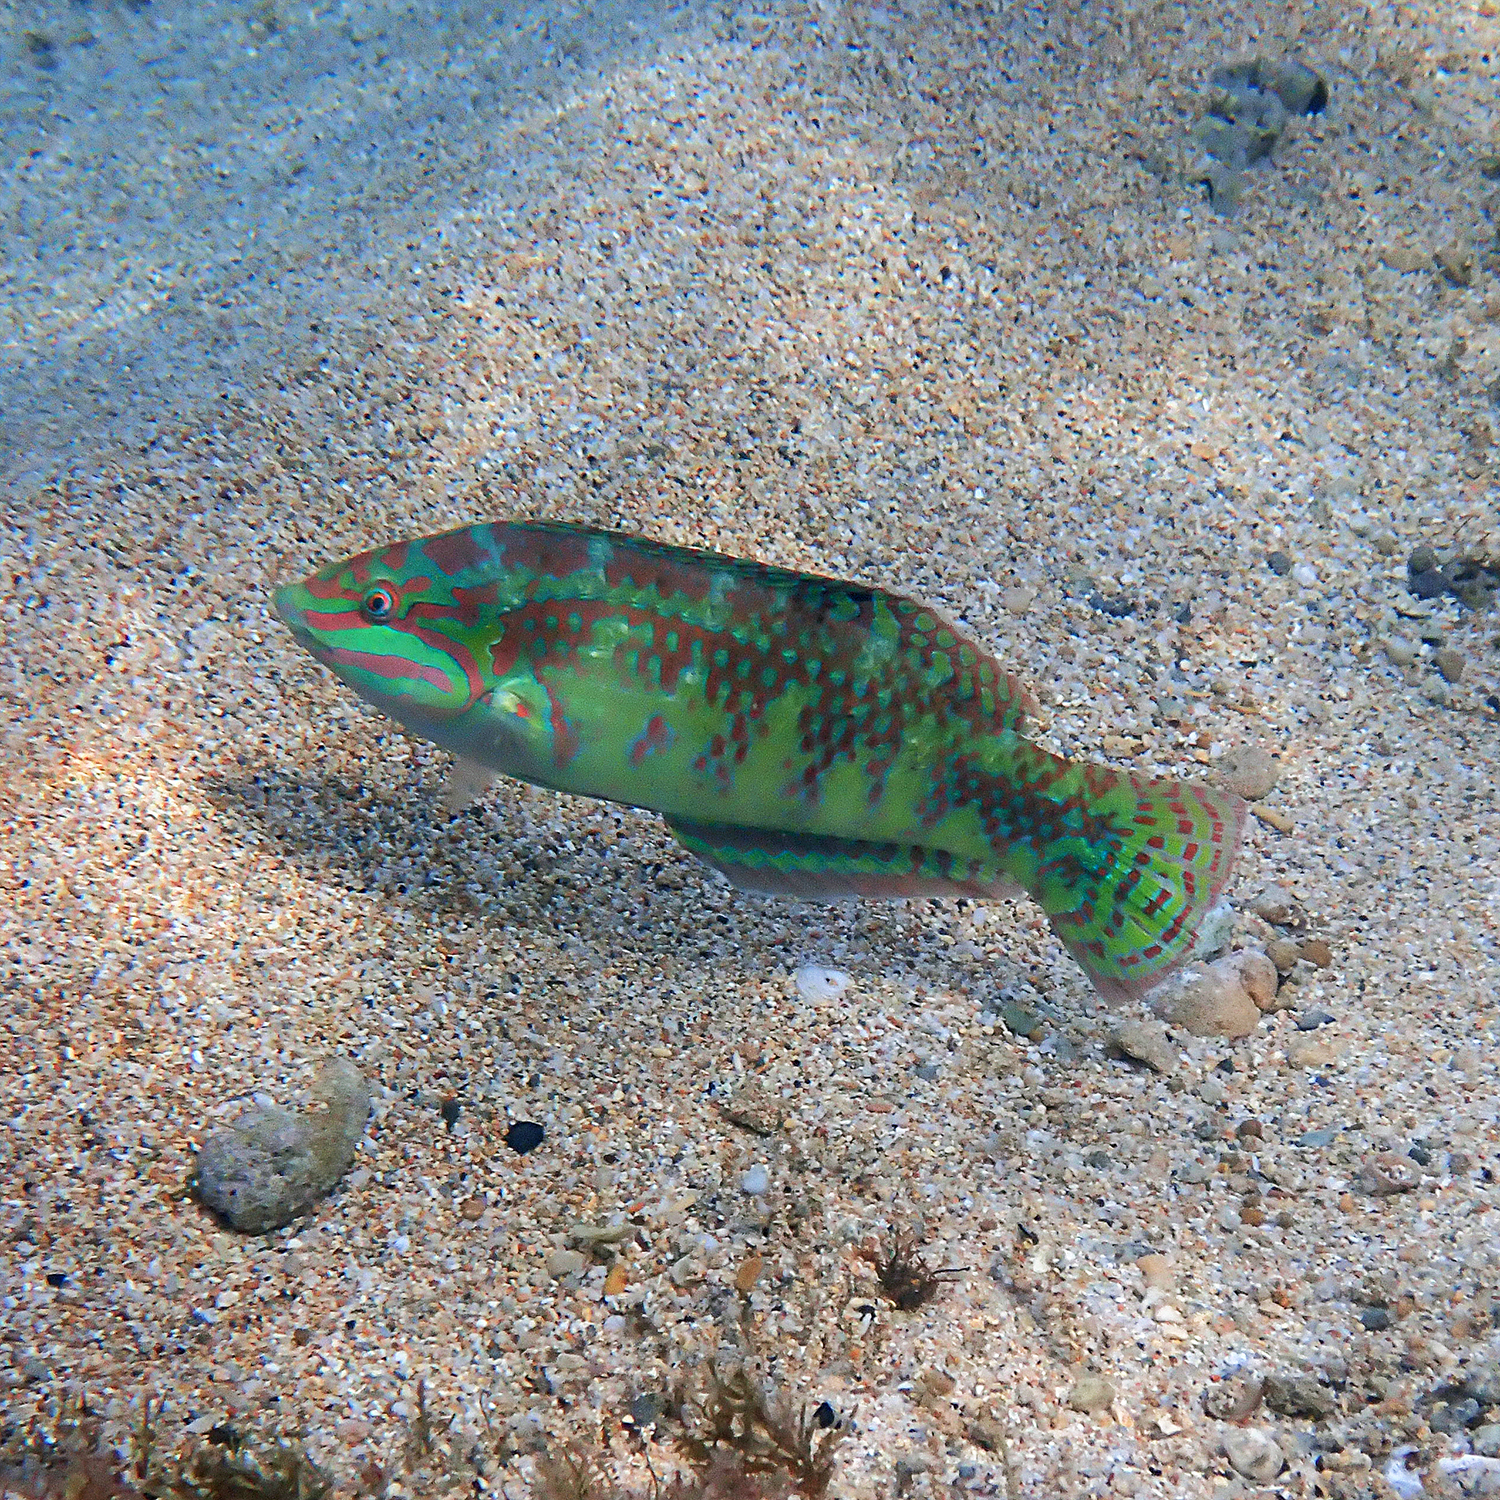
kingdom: Animalia
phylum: Chordata
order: Perciformes
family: Labridae
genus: Halichoeres
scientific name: Halichoeres margaritaceus
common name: Pink-belly wrasse
